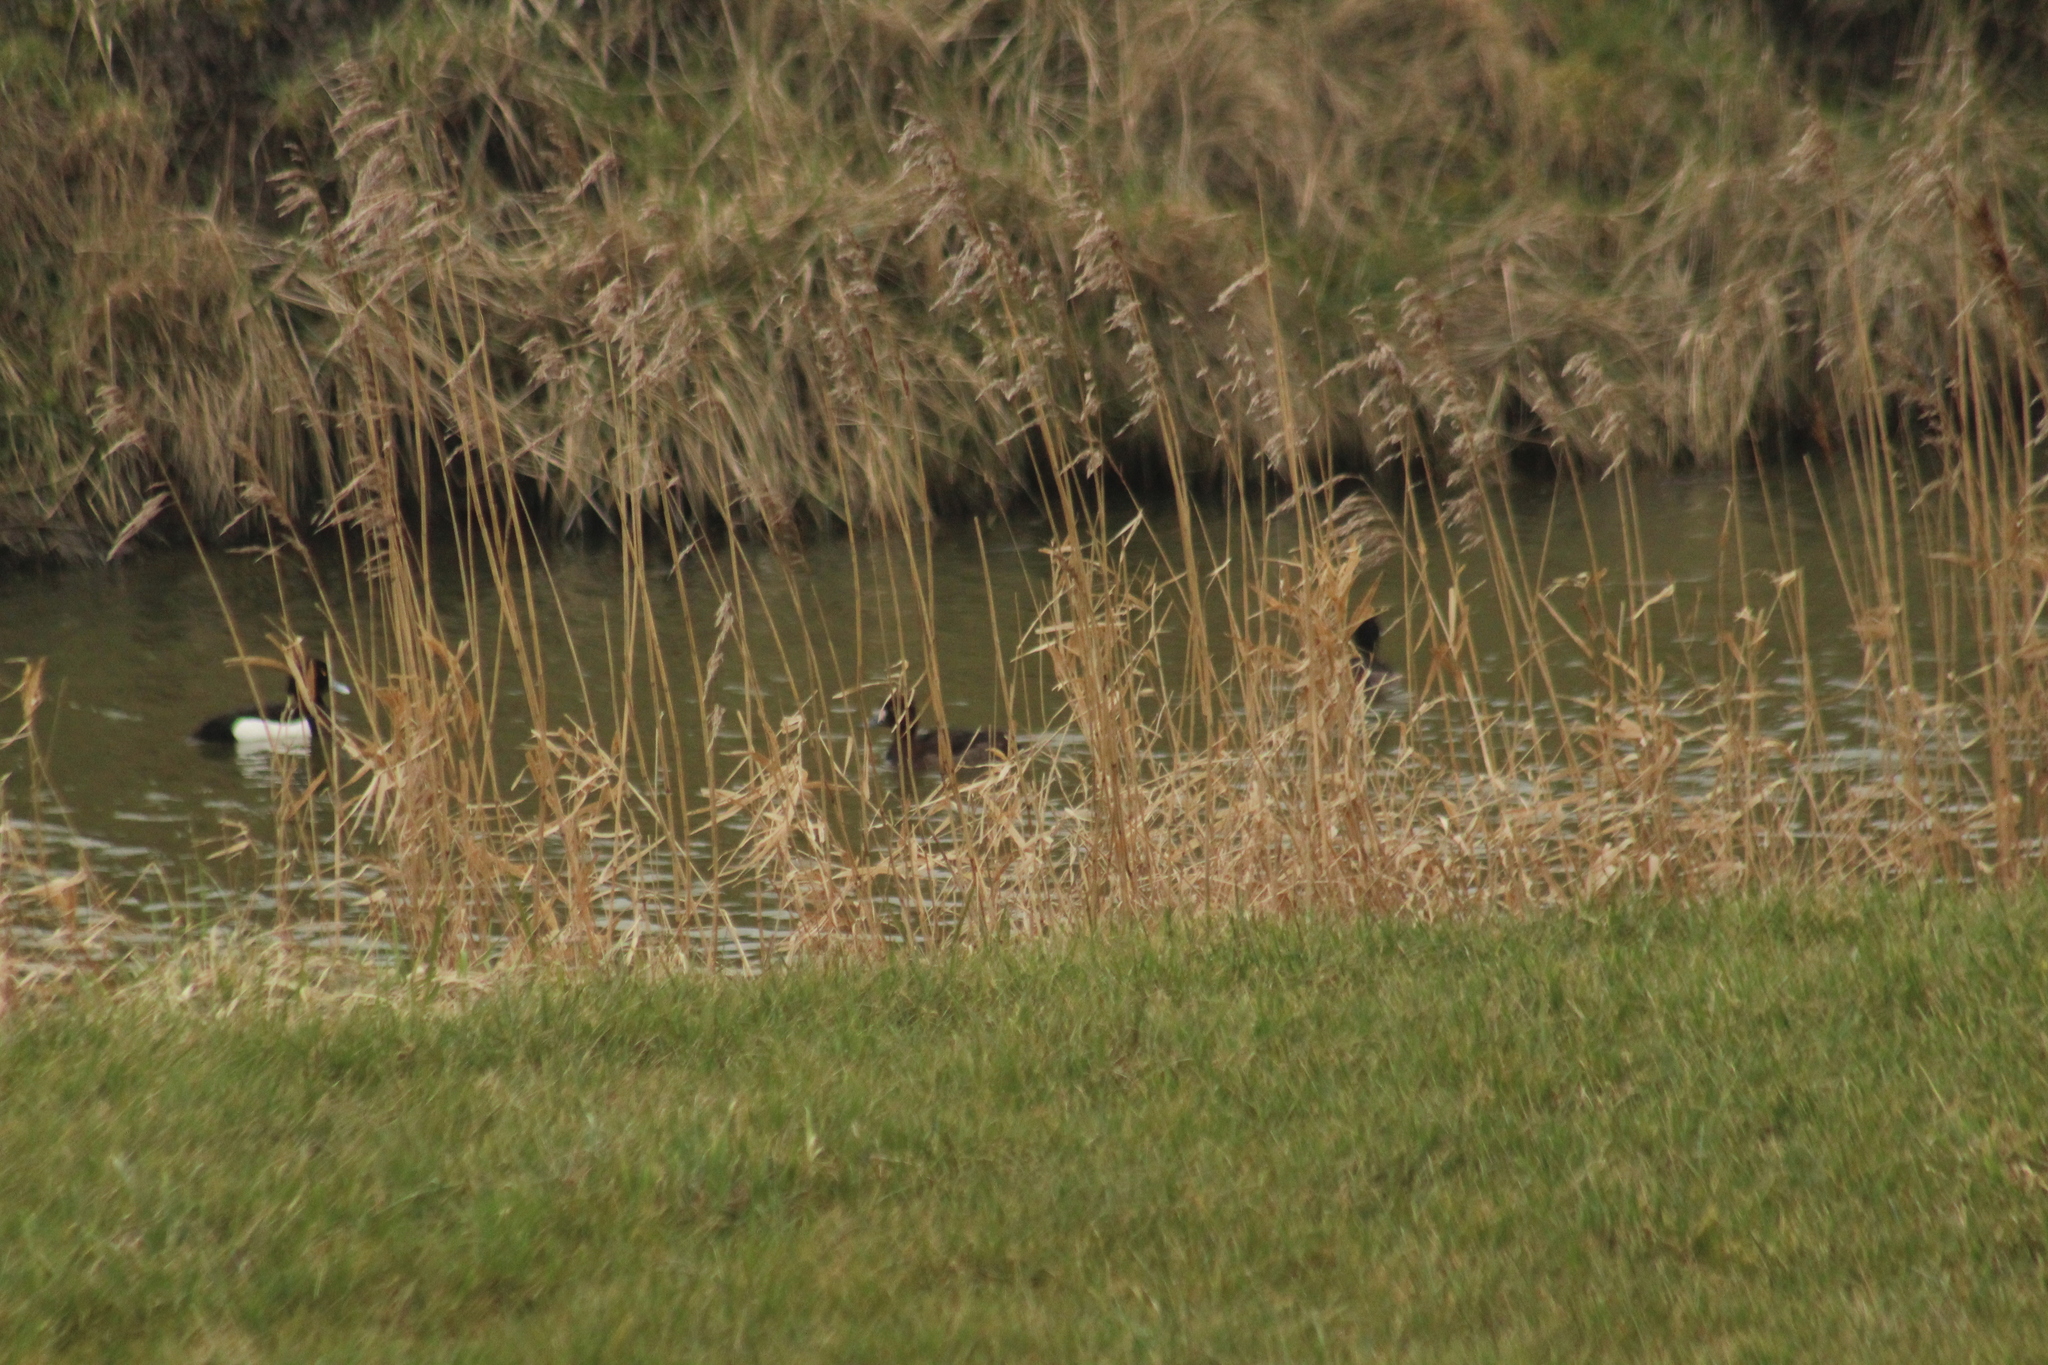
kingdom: Animalia
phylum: Chordata
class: Aves
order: Anseriformes
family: Anatidae
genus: Aythya
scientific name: Aythya fuligula
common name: Tufted duck
